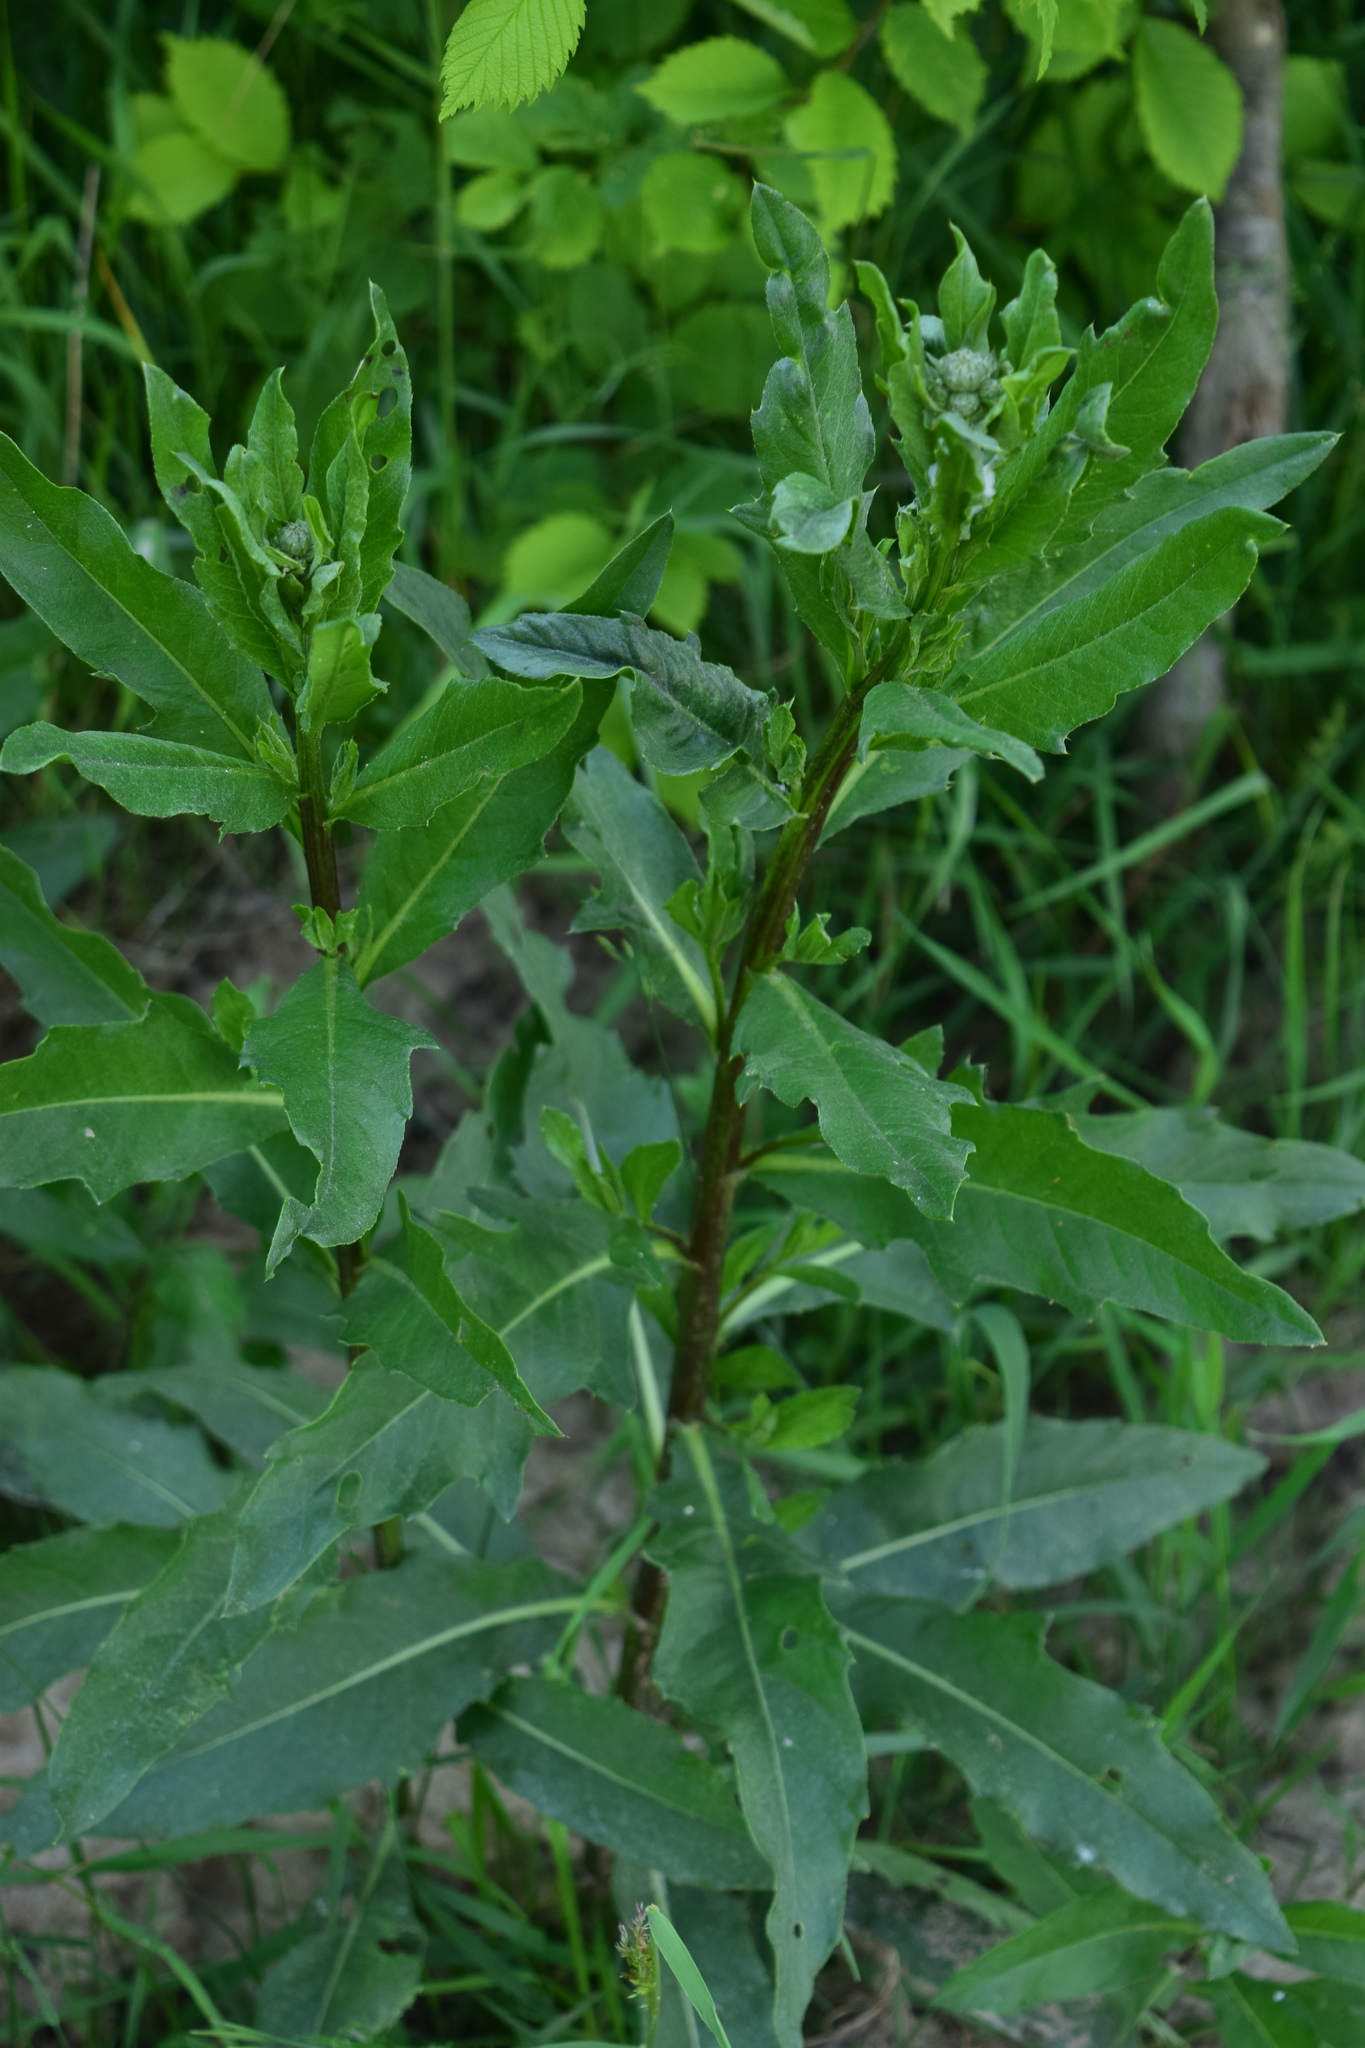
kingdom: Plantae
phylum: Tracheophyta
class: Magnoliopsida
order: Asterales
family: Asteraceae
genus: Cirsium
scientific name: Cirsium arvense
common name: Creeping thistle
